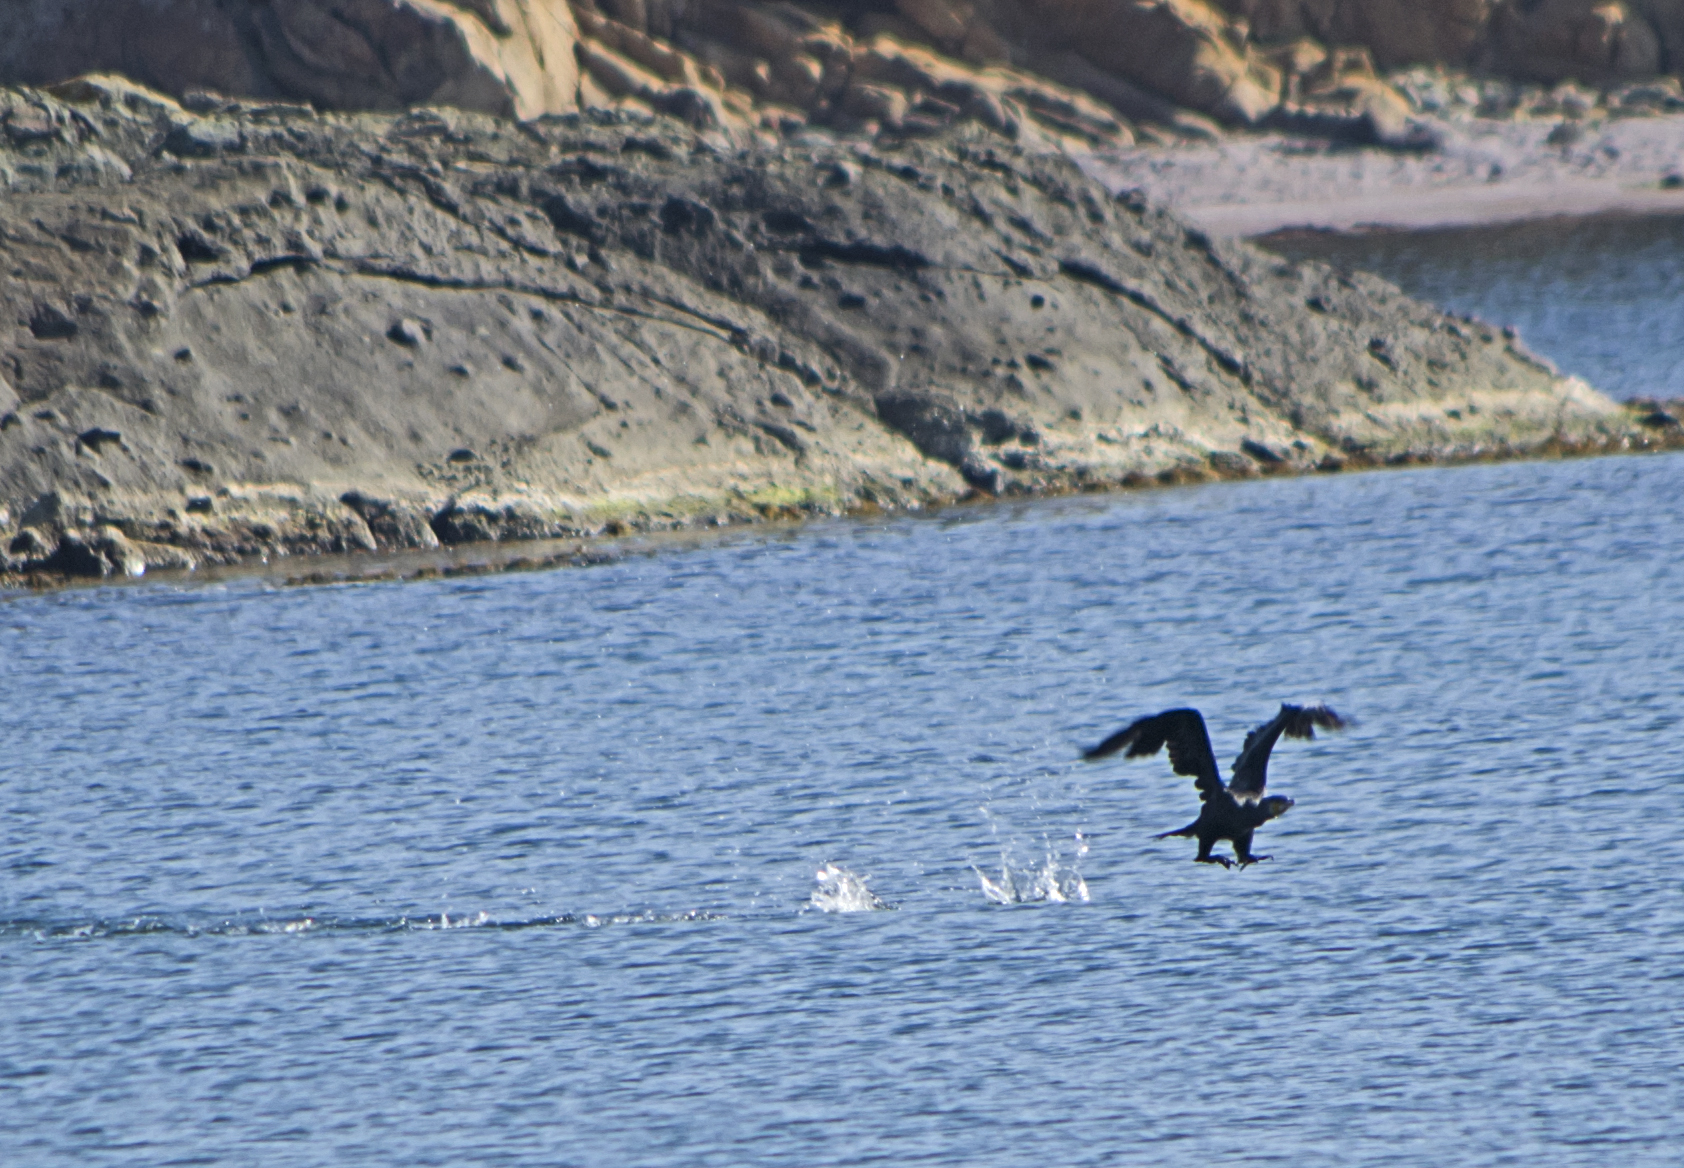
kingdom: Animalia
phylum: Chordata
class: Aves
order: Suliformes
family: Phalacrocoracidae
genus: Phalacrocorax
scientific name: Phalacrocorax carbo
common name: Great cormorant
